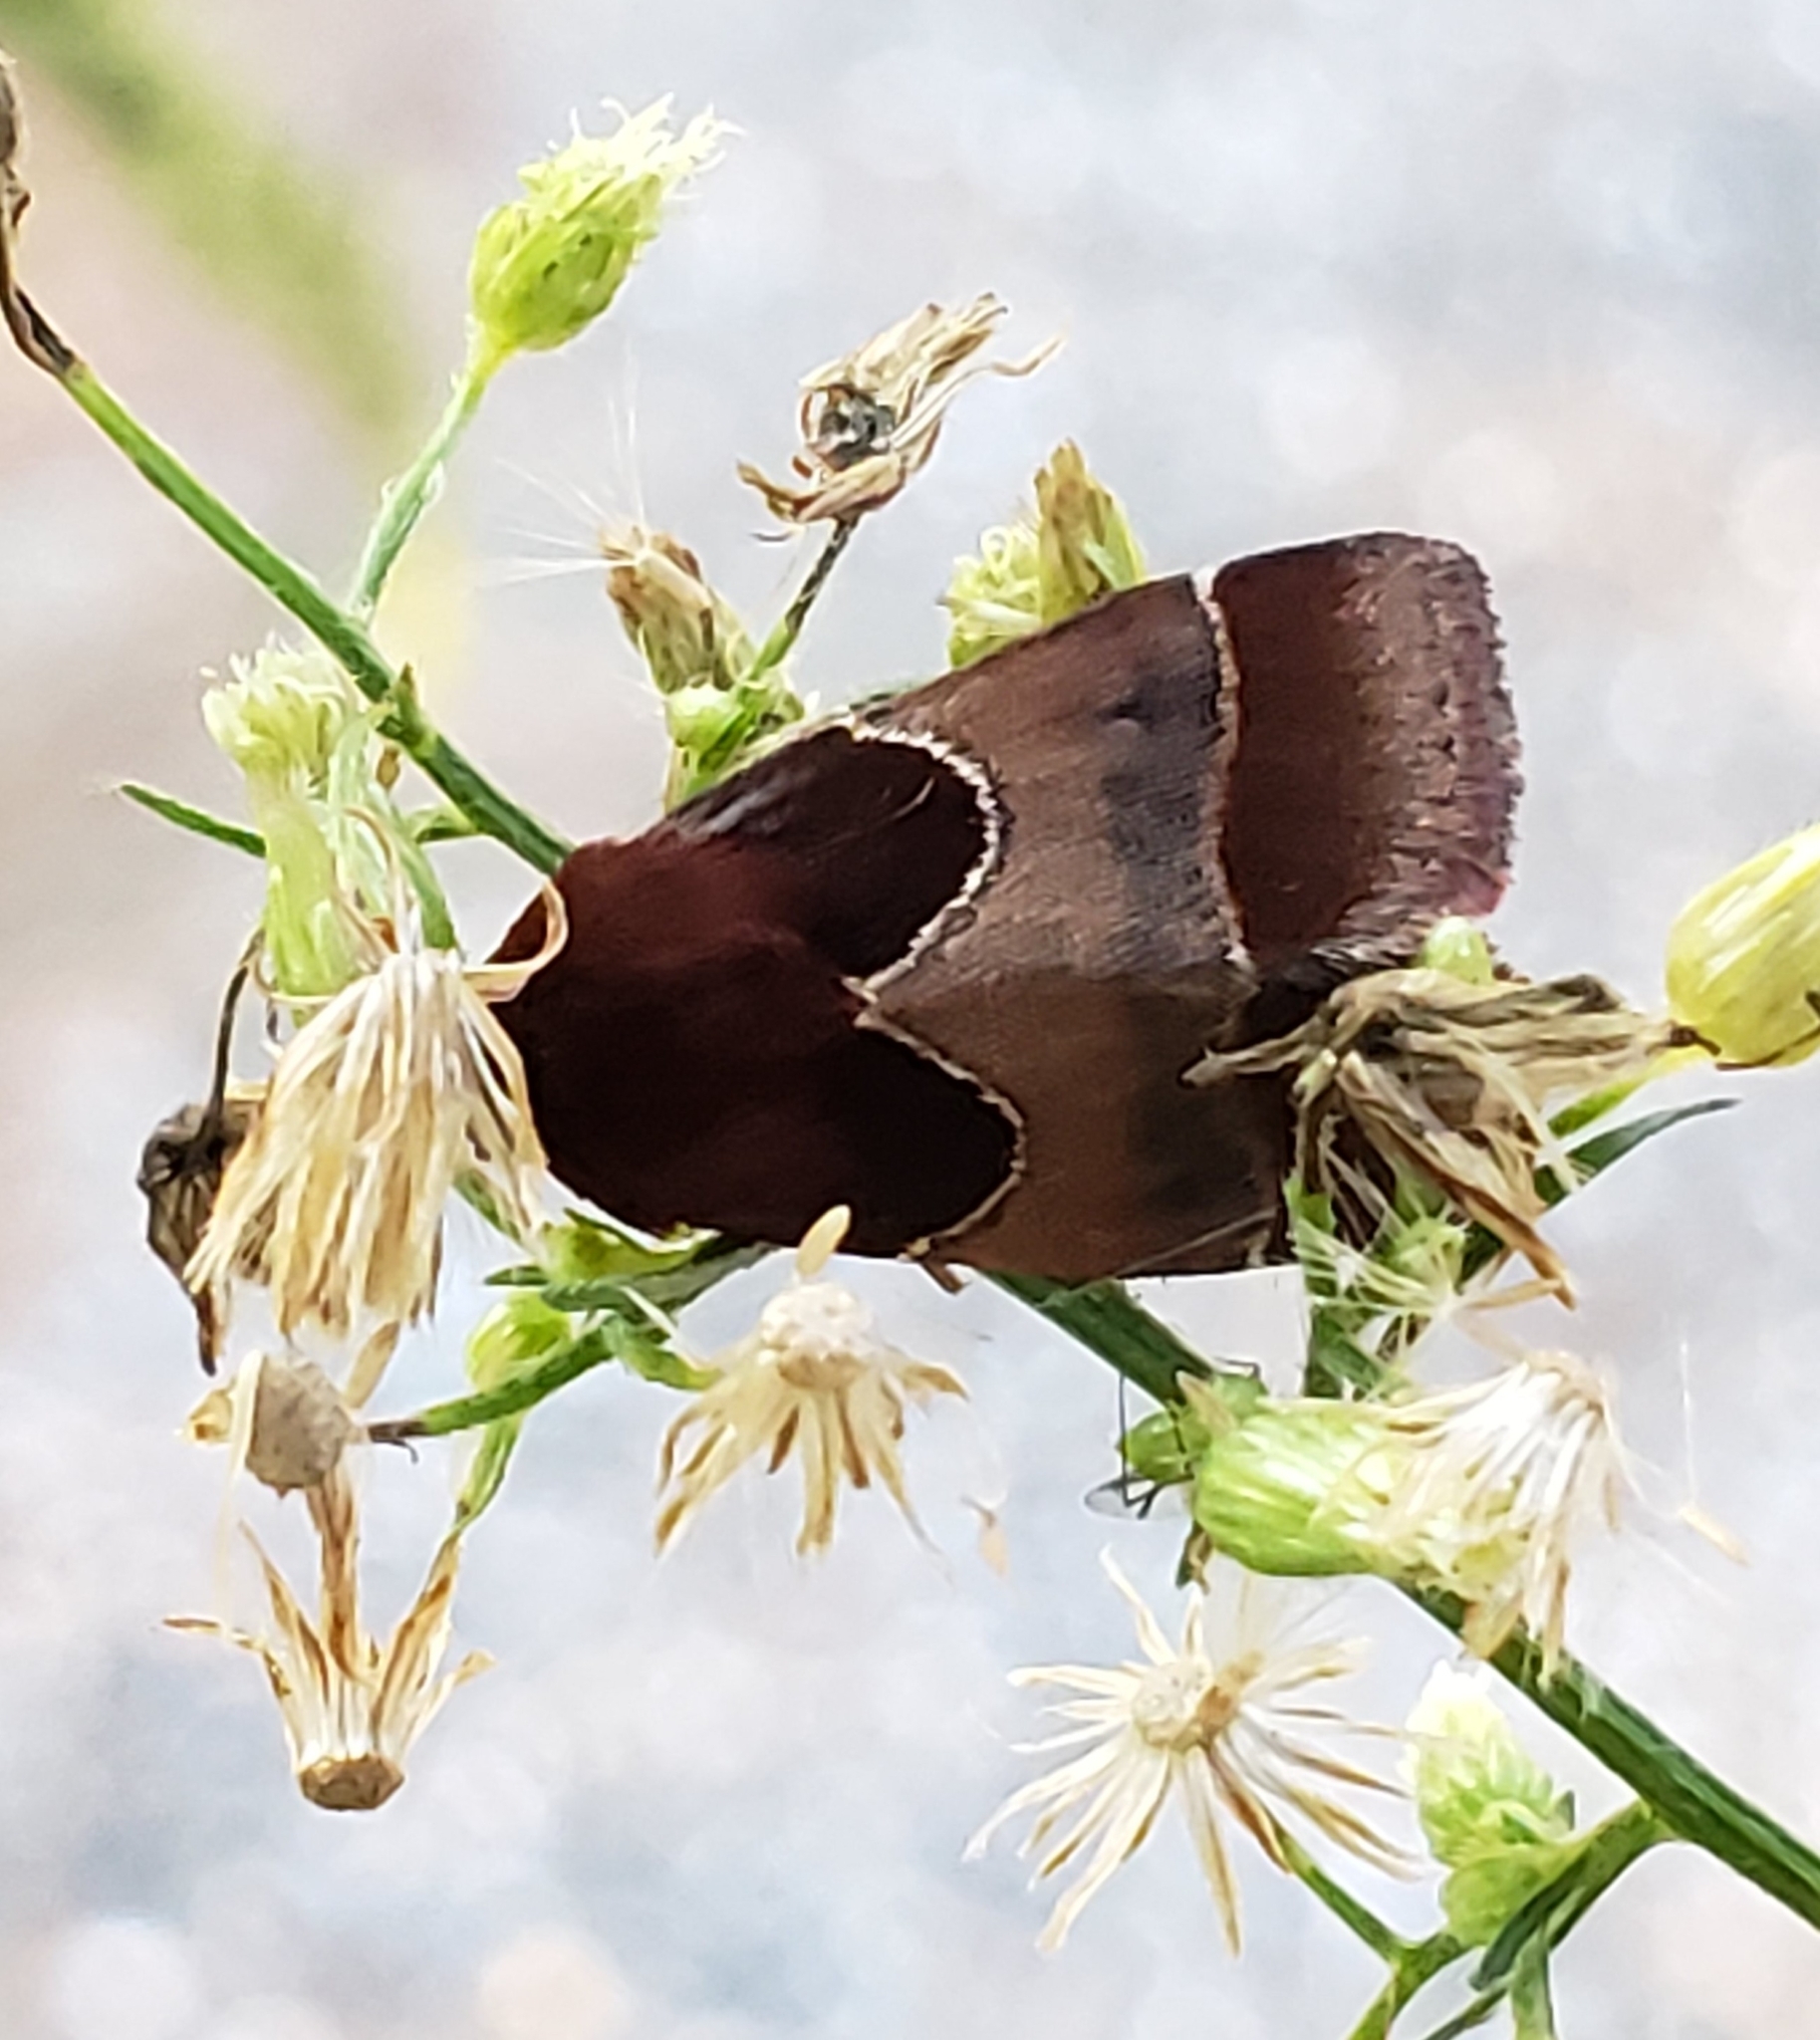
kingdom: Animalia
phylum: Arthropoda
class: Insecta
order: Lepidoptera
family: Noctuidae
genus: Schinia
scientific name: Schinia arcigera
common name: Arcigera flower moth
